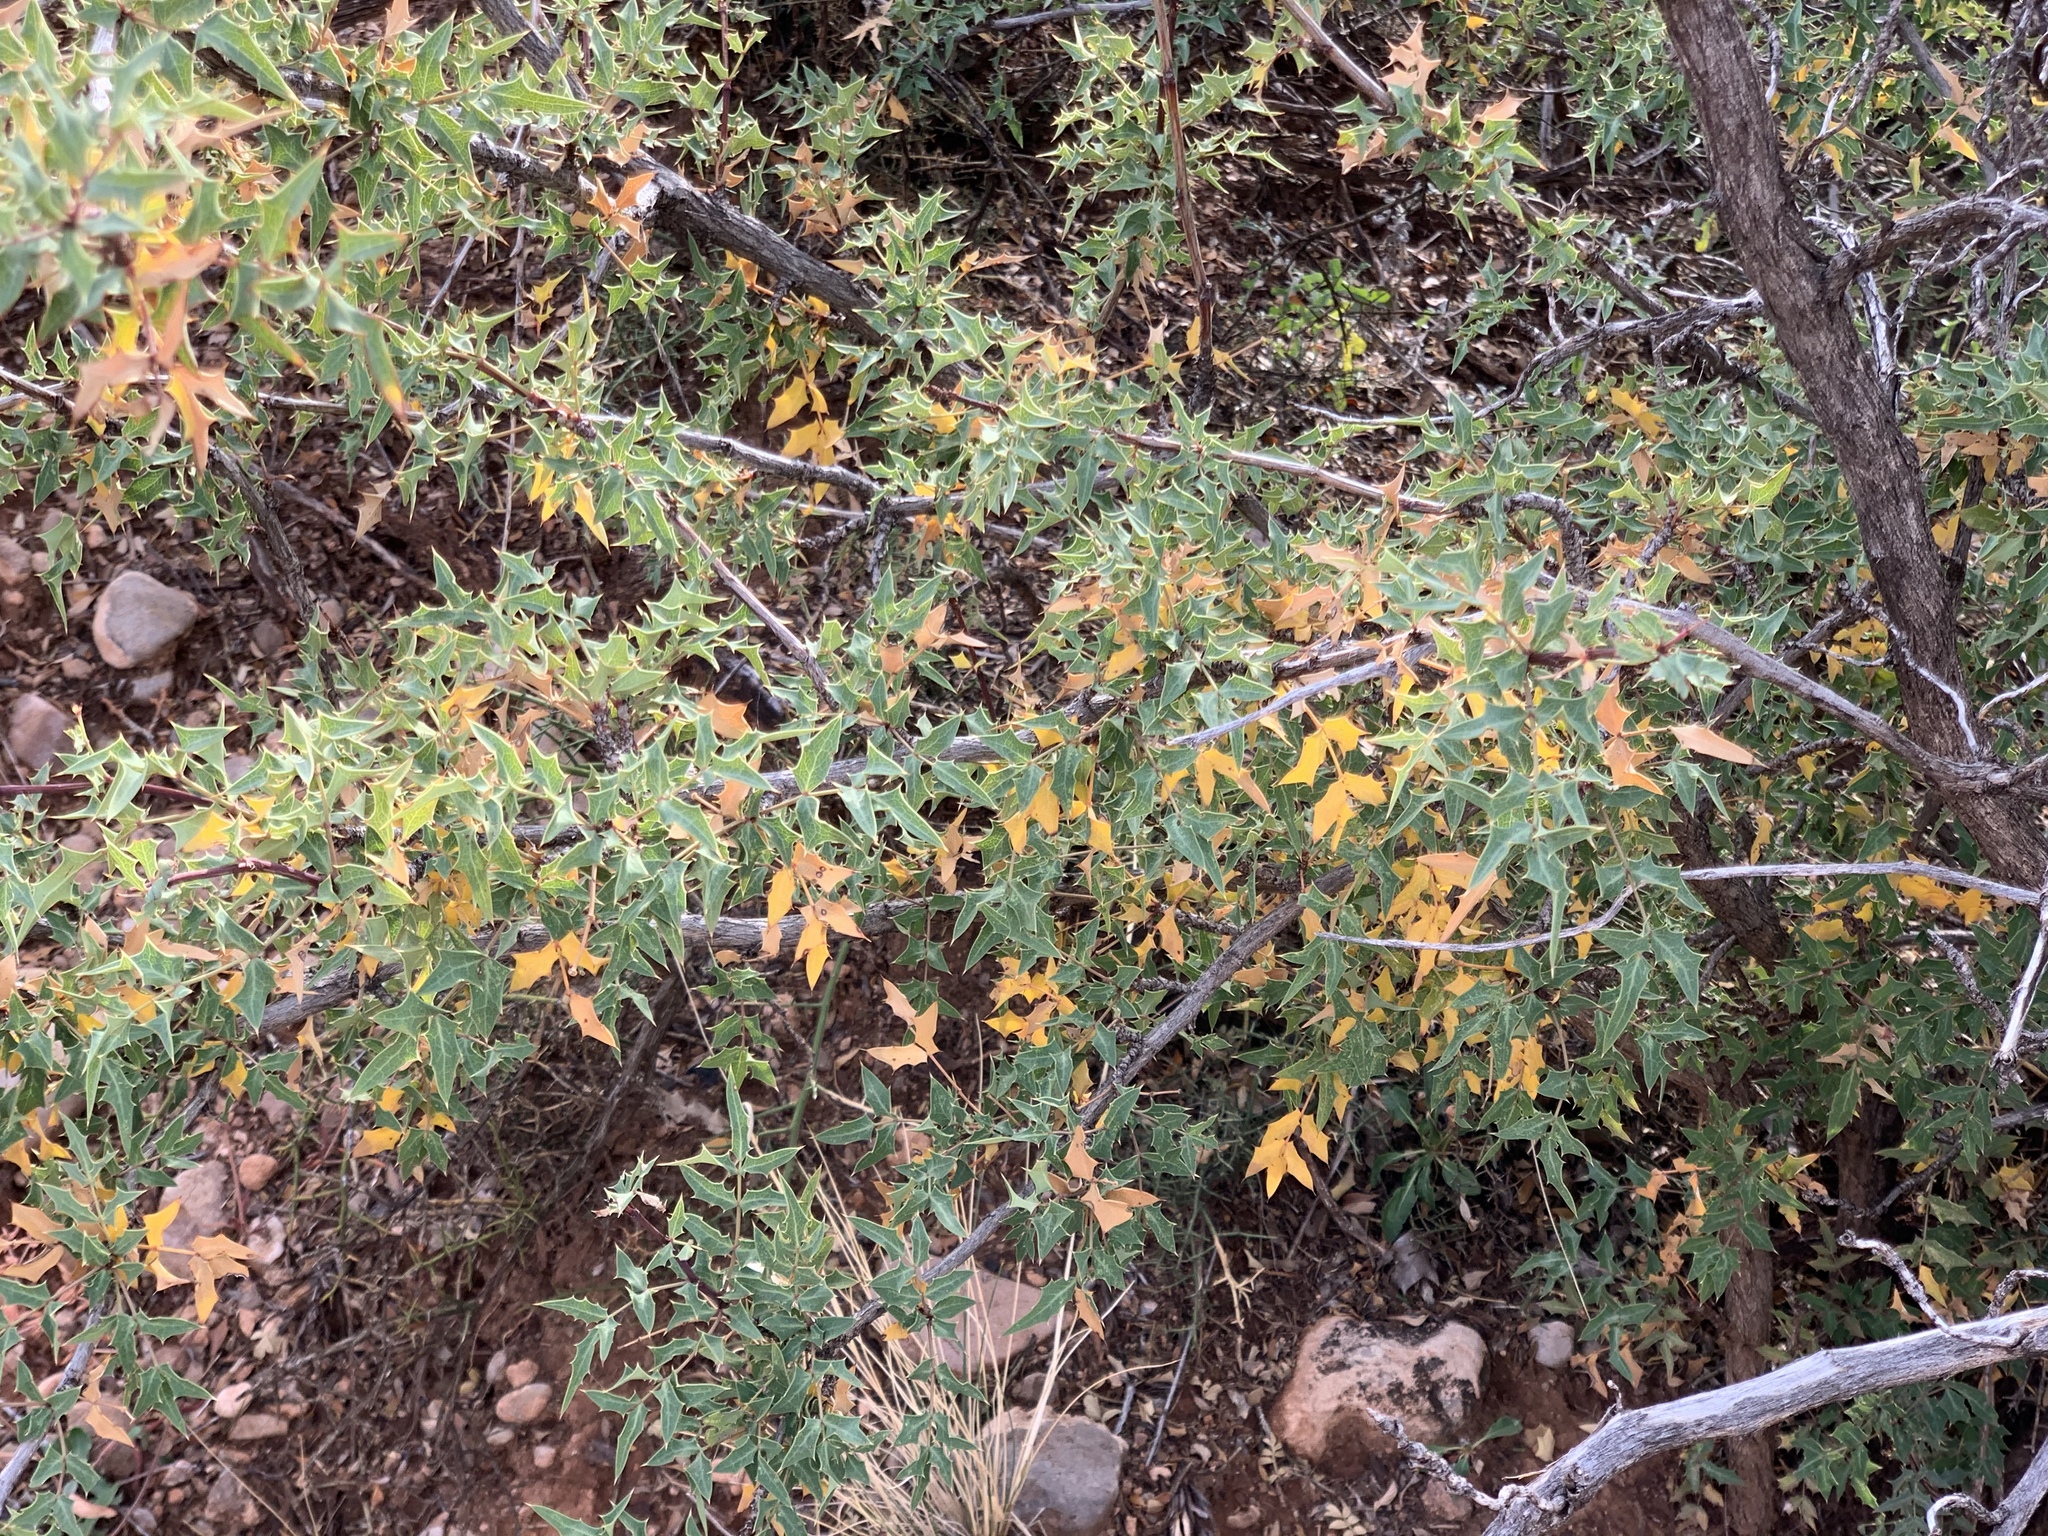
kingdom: Plantae
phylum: Tracheophyta
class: Magnoliopsida
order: Ranunculales
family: Berberidaceae
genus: Alloberberis
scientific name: Alloberberis haematocarpa
